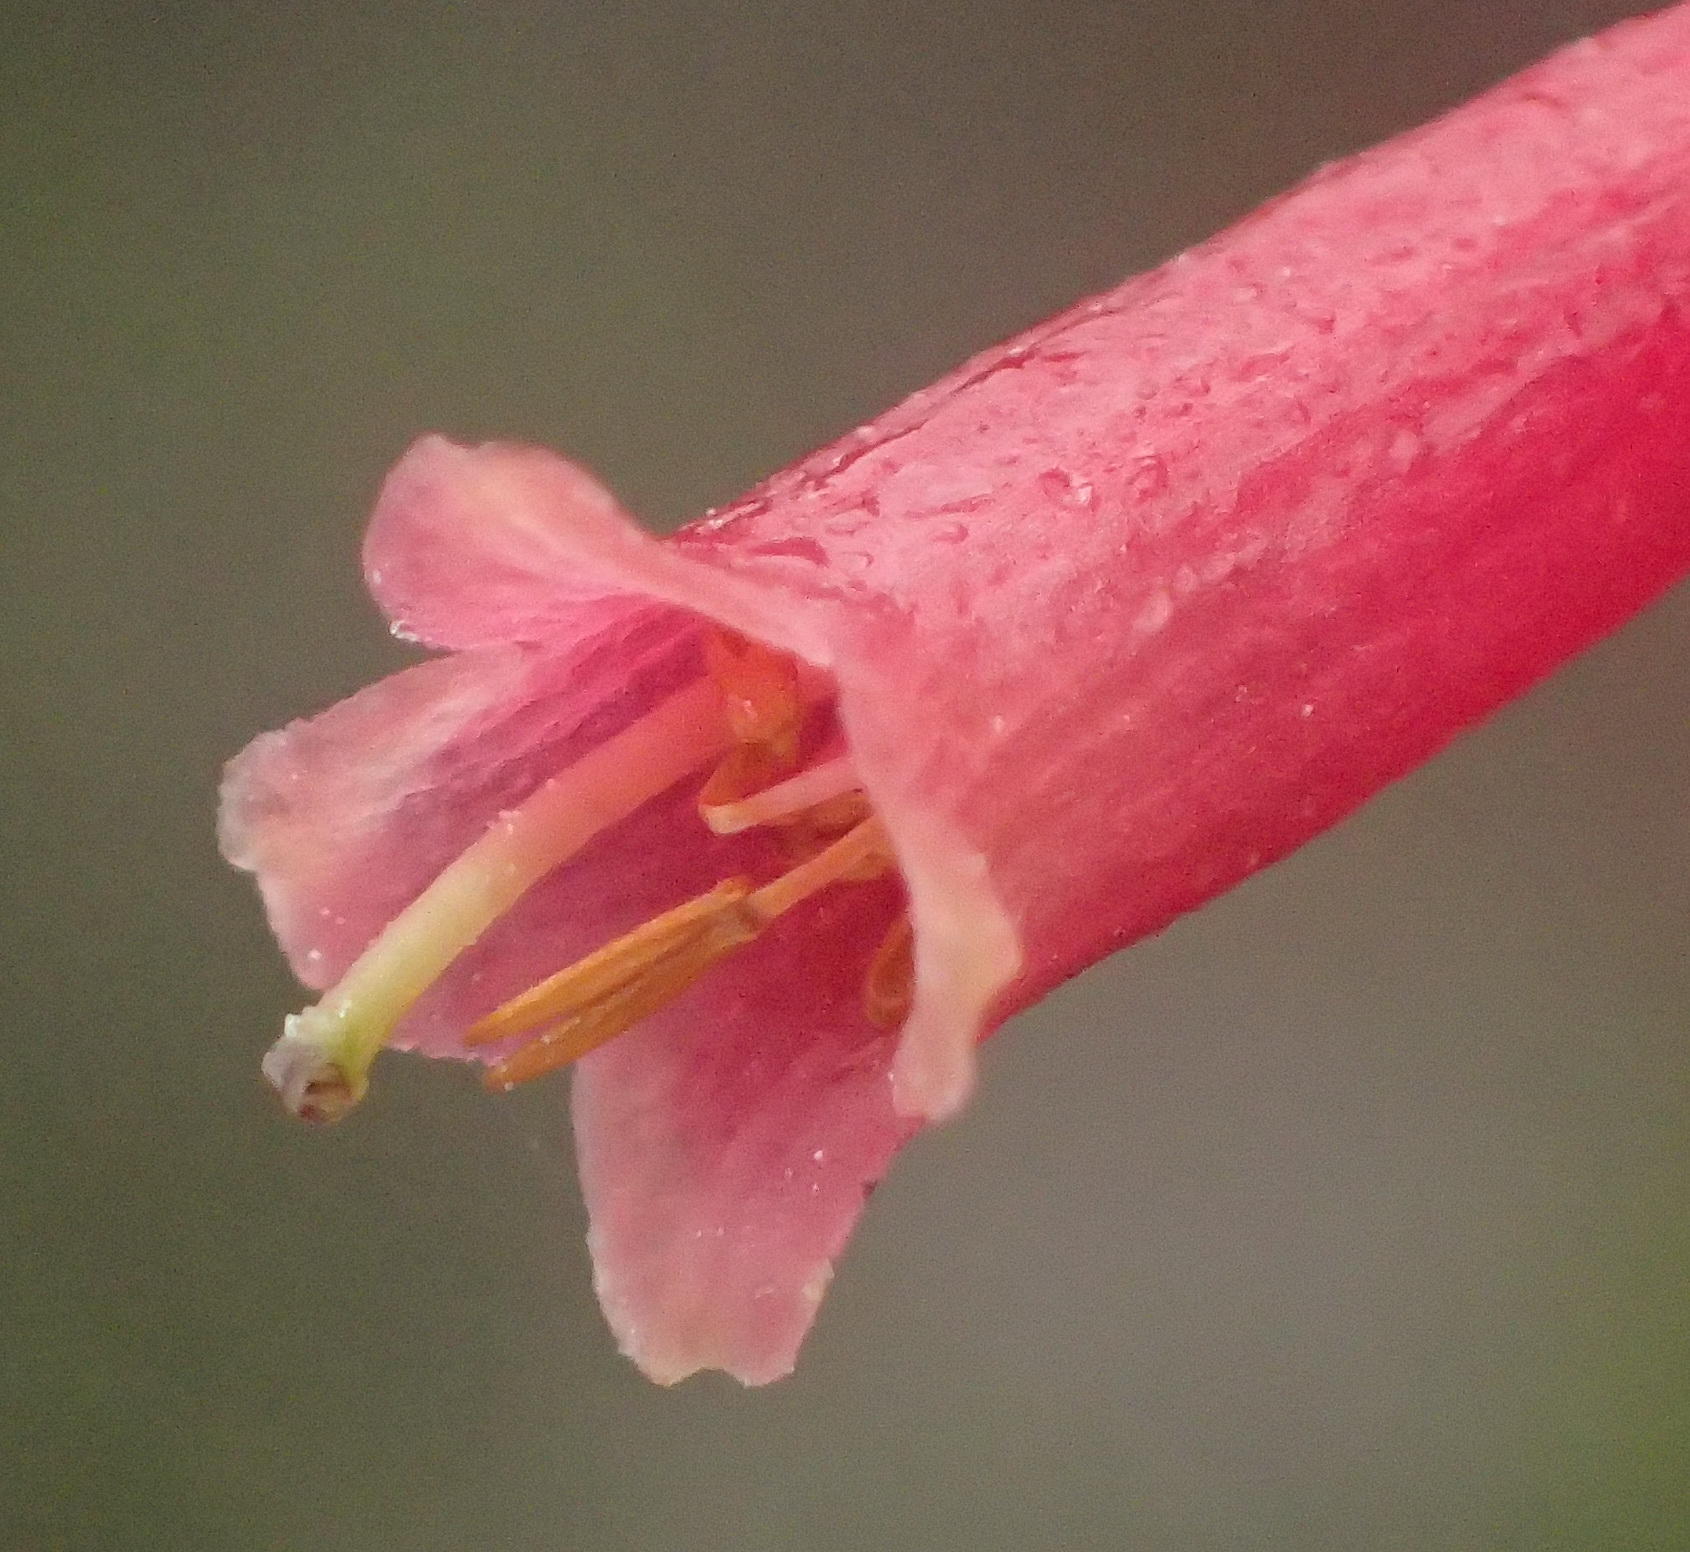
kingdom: Plantae
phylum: Tracheophyta
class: Magnoliopsida
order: Ericales
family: Ericaceae
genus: Erica
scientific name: Erica discolor
